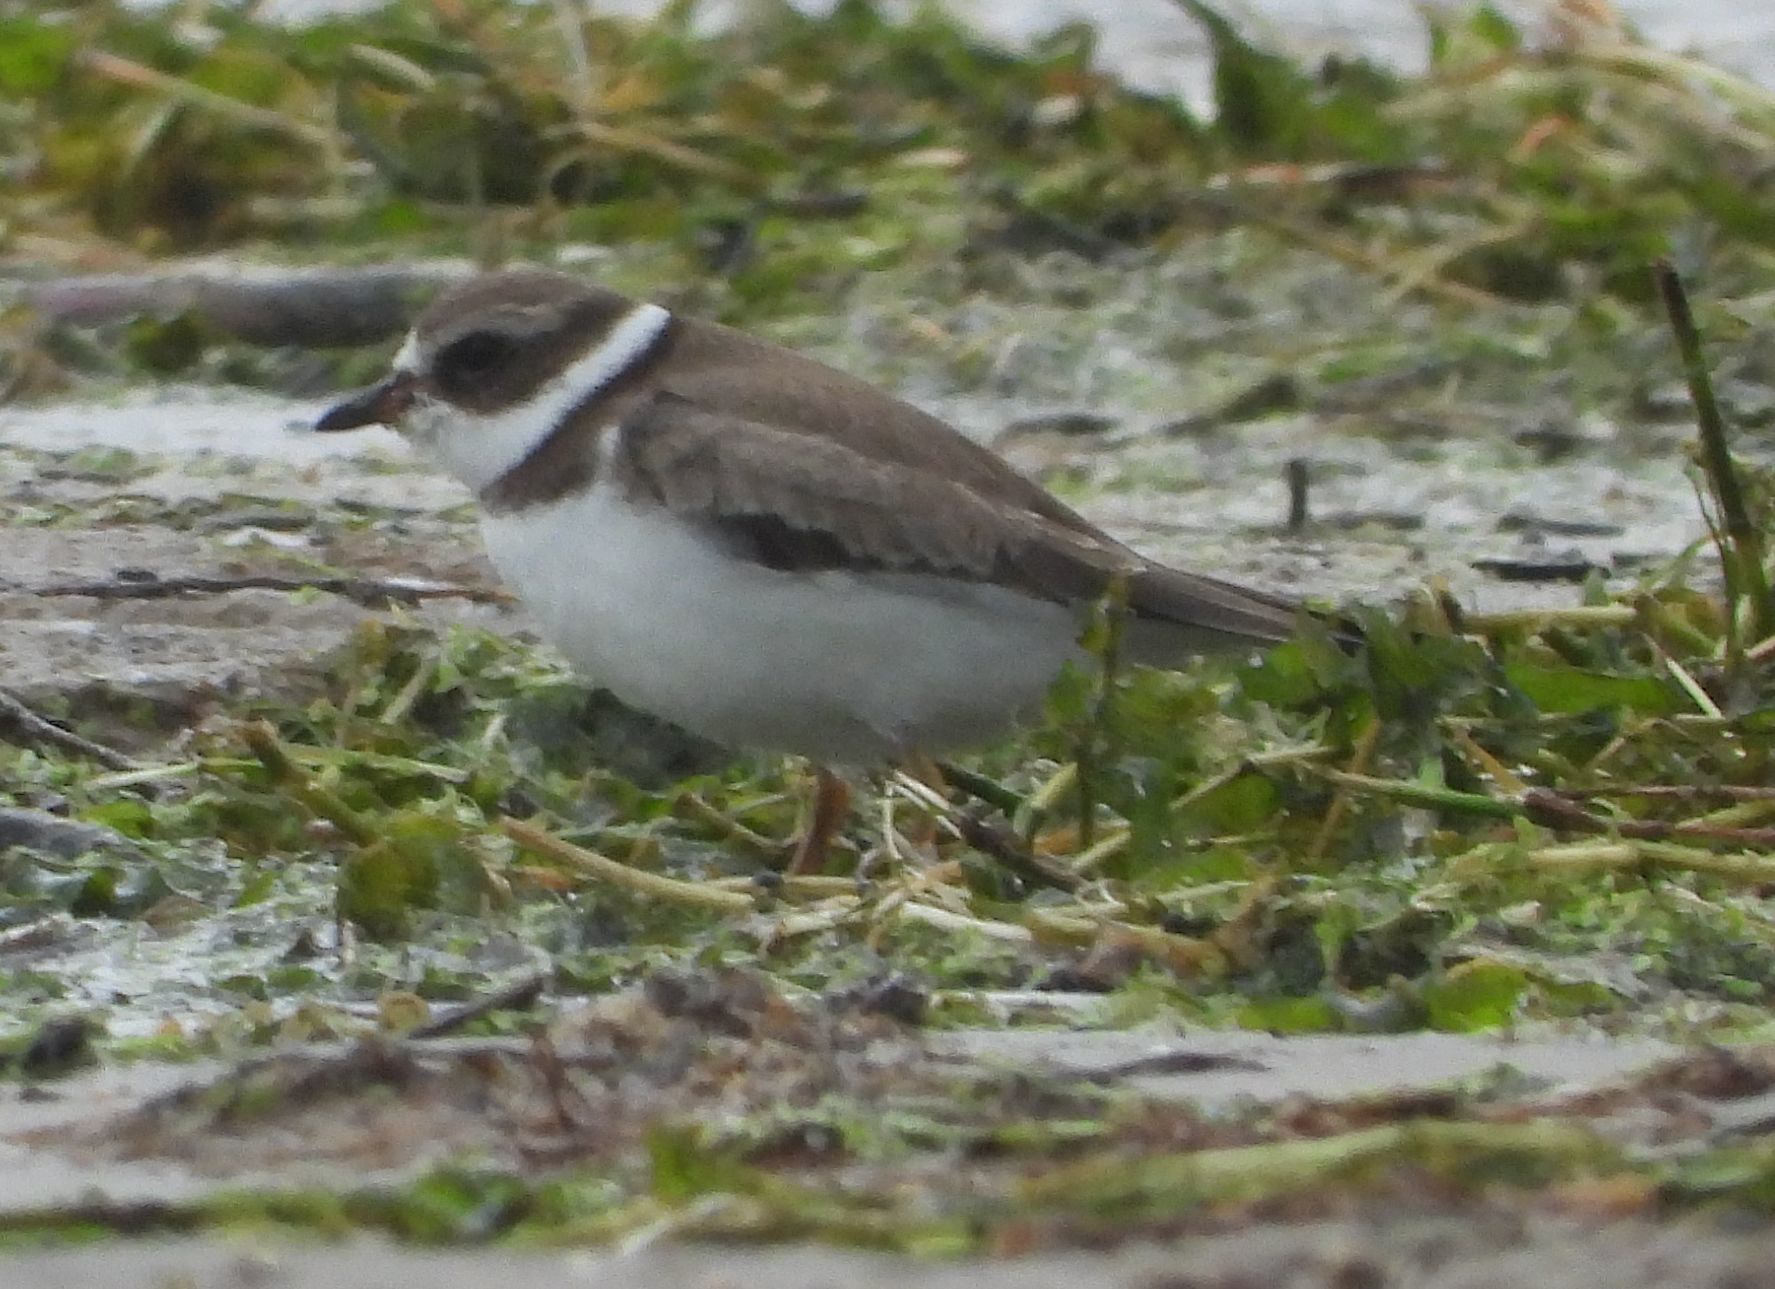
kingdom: Animalia
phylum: Chordata
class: Aves
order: Charadriiformes
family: Charadriidae
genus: Charadrius
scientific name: Charadrius semipalmatus
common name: Semipalmated plover
